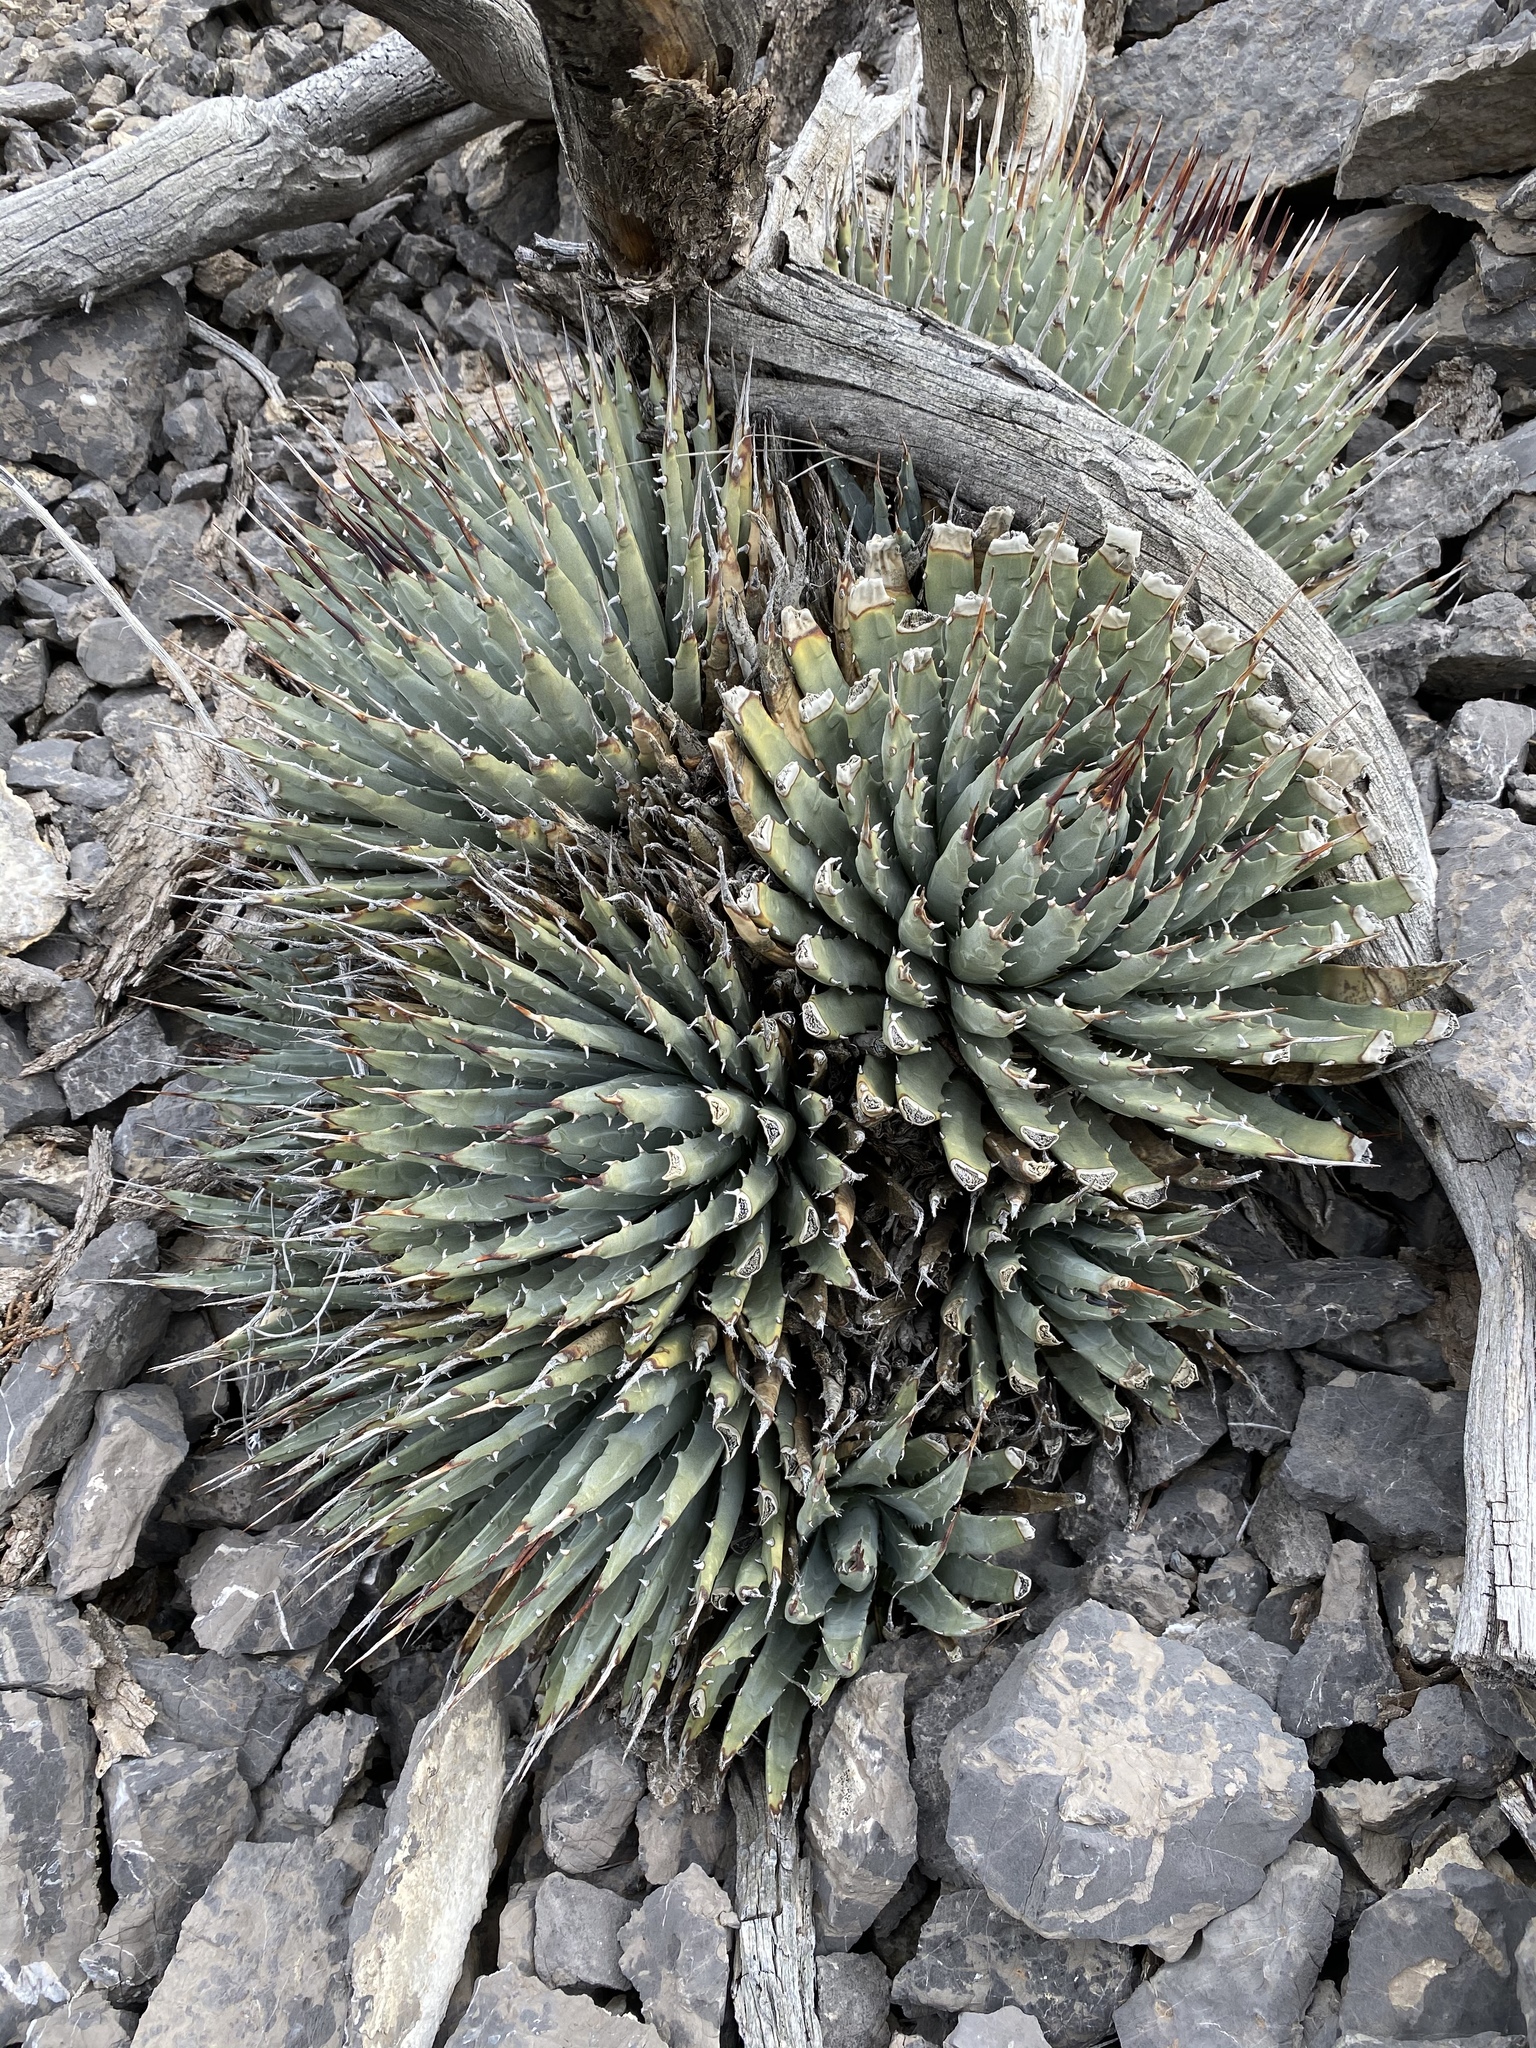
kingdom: Plantae
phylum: Tracheophyta
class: Liliopsida
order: Asparagales
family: Asparagaceae
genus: Agave
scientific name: Agave utahensis
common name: Utah agave
